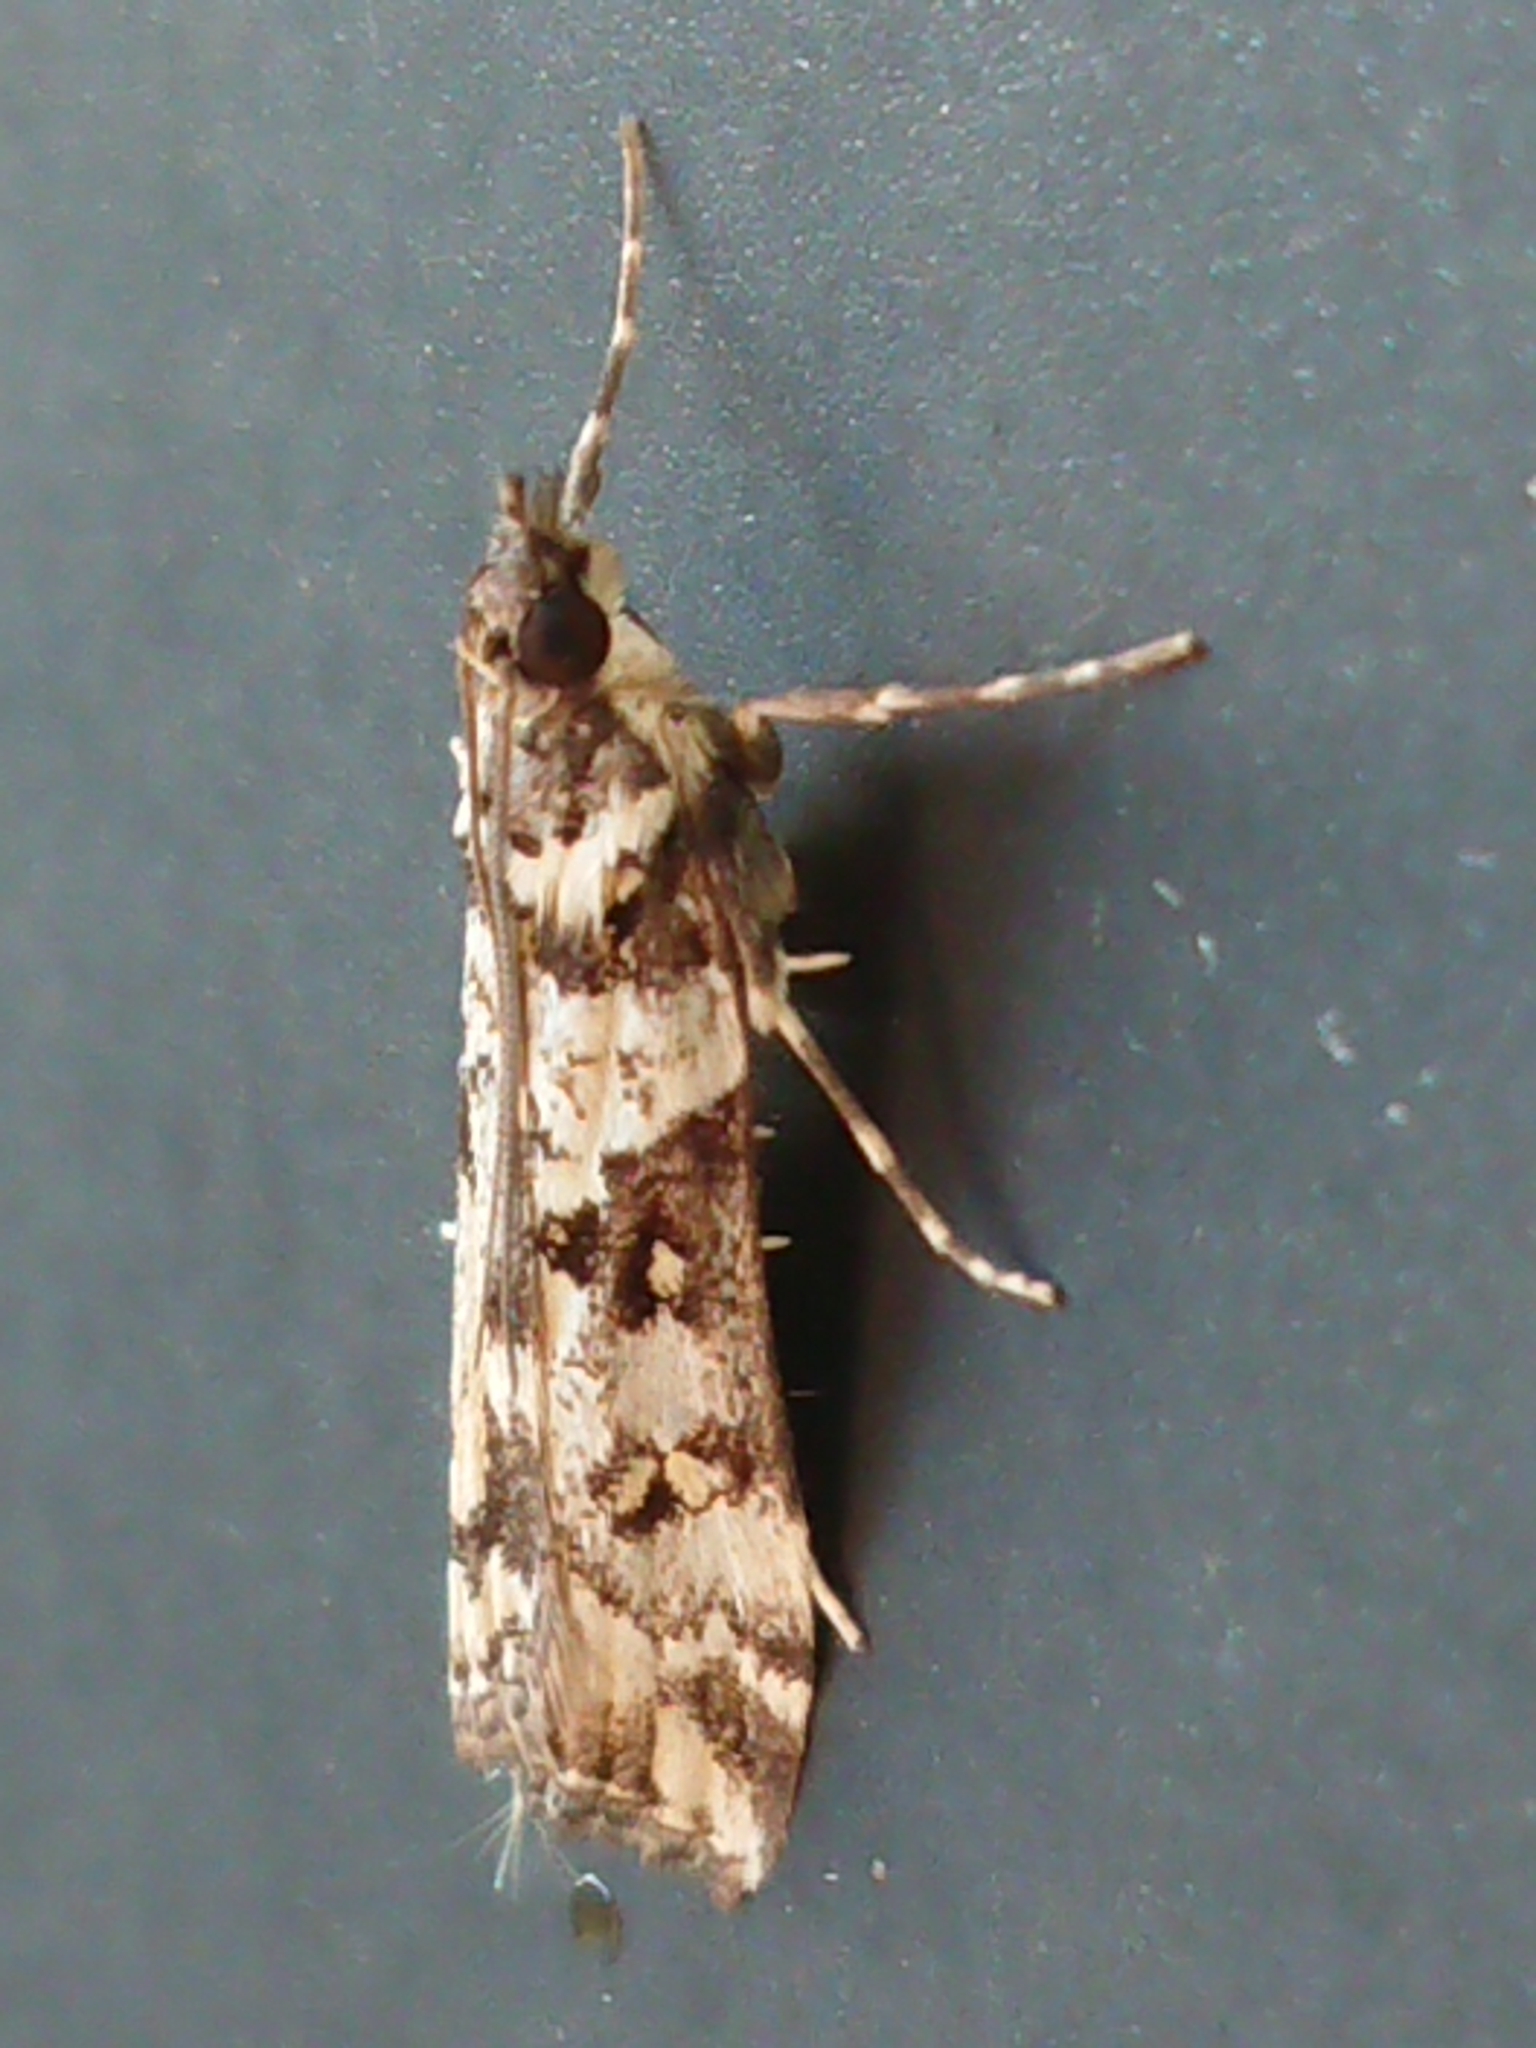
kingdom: Animalia
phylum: Arthropoda
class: Insecta
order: Lepidoptera
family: Crambidae
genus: Eudonia
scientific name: Eudonia diphtheralis
